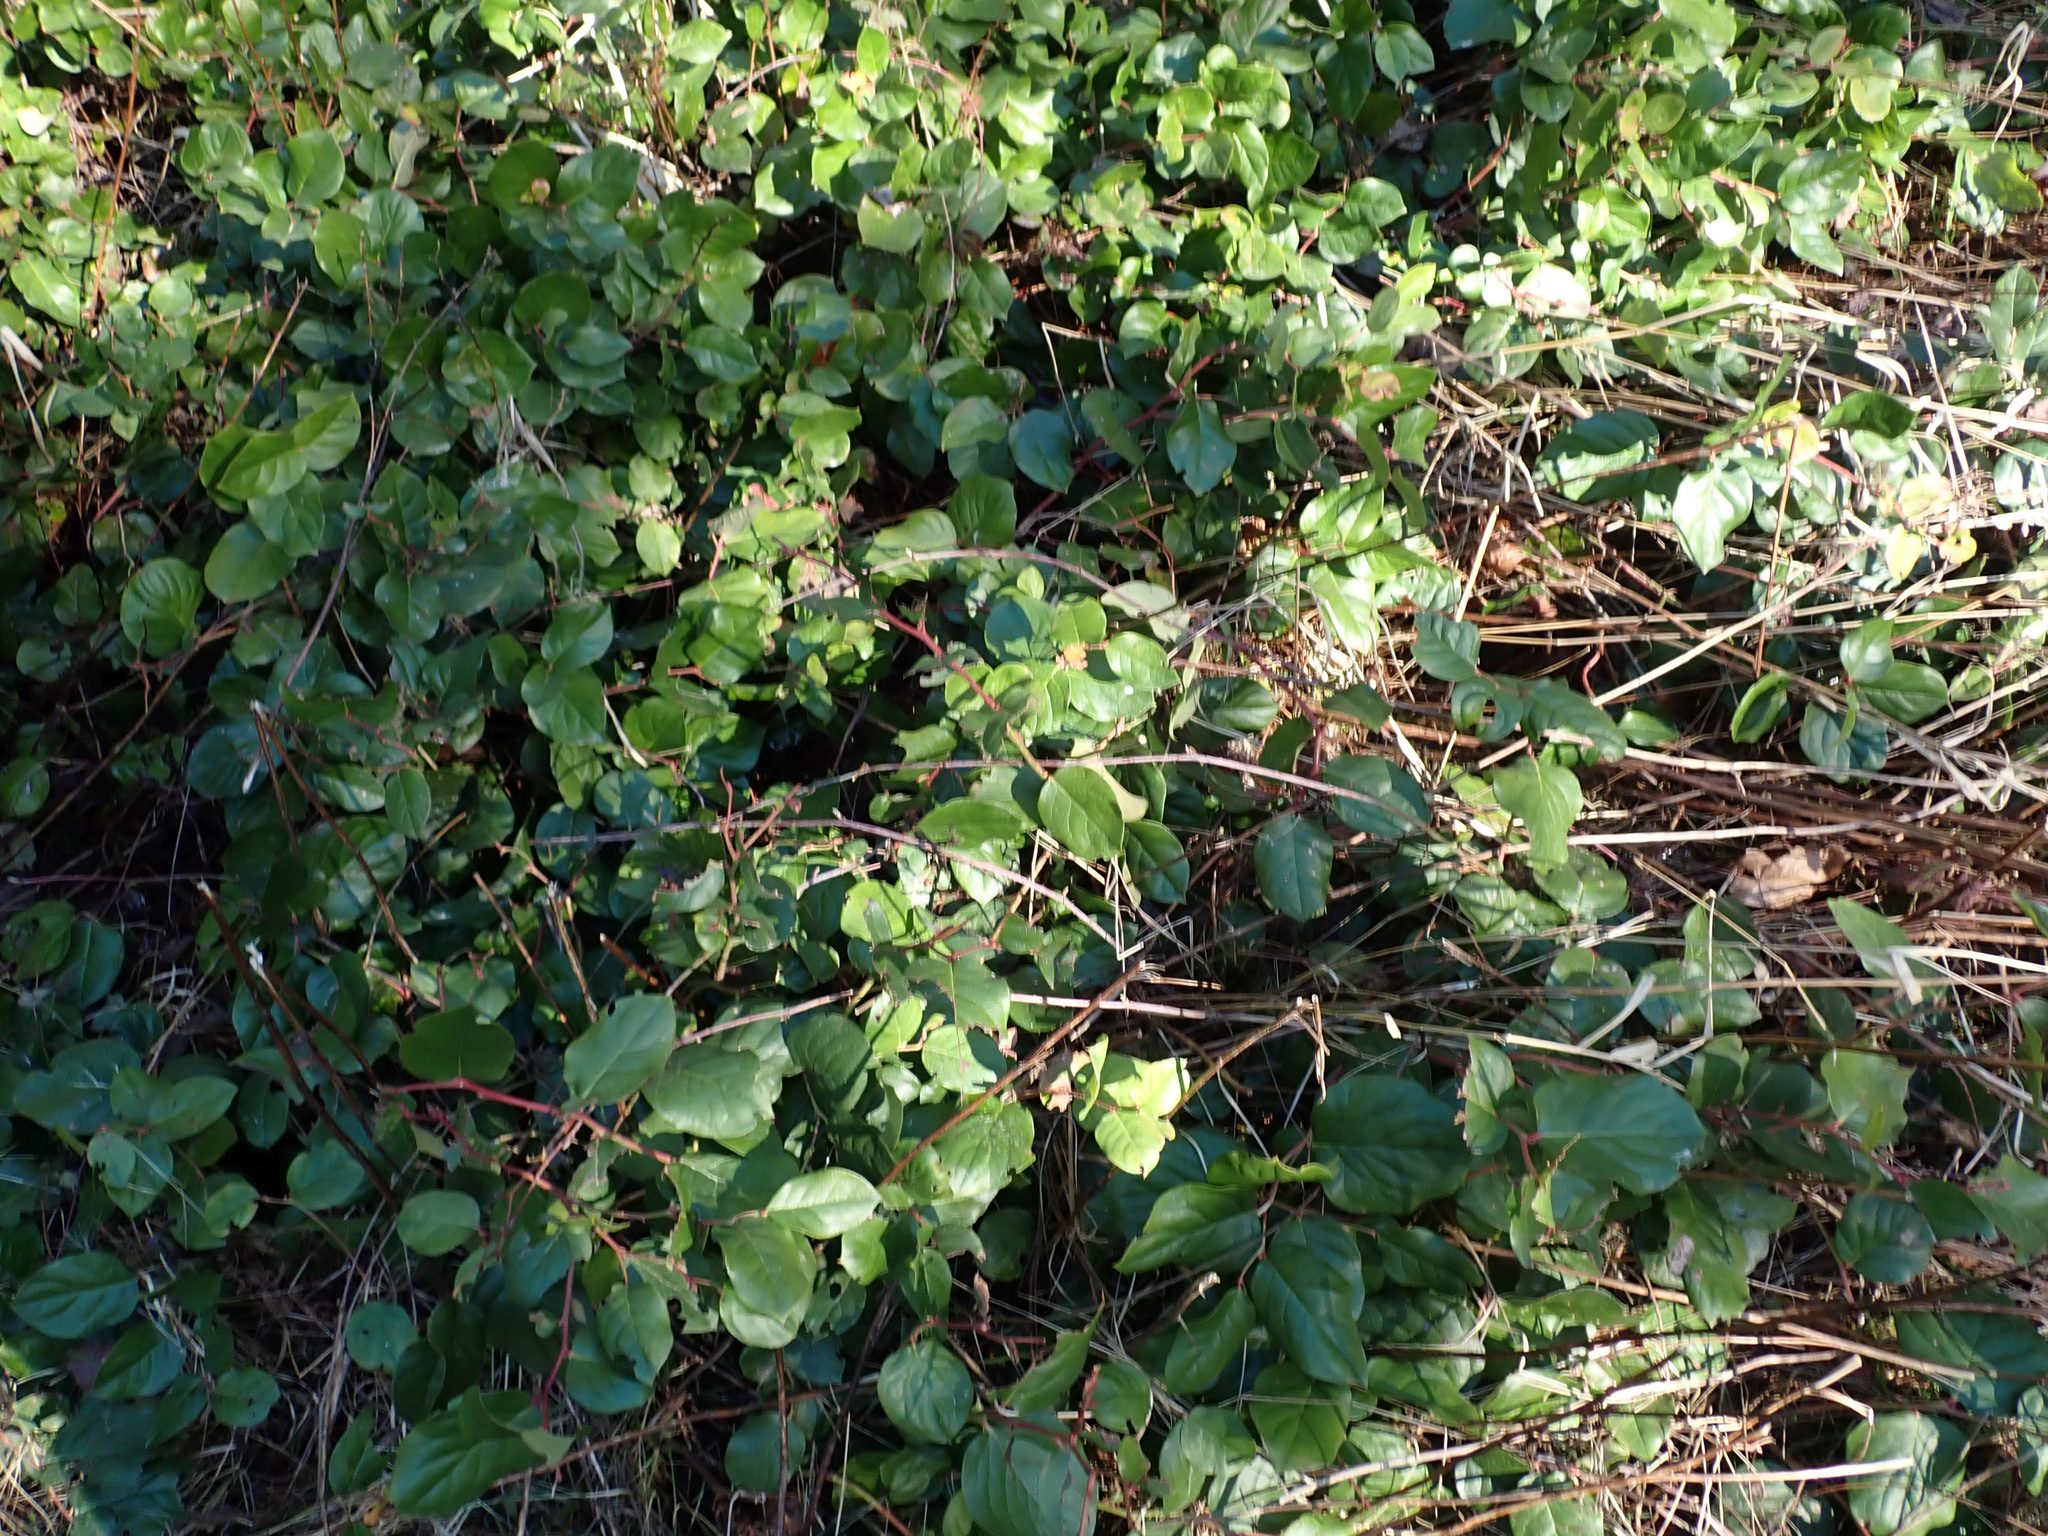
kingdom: Plantae
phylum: Tracheophyta
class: Magnoliopsida
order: Ericales
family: Ericaceae
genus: Gaultheria
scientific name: Gaultheria shallon
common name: Shallon
